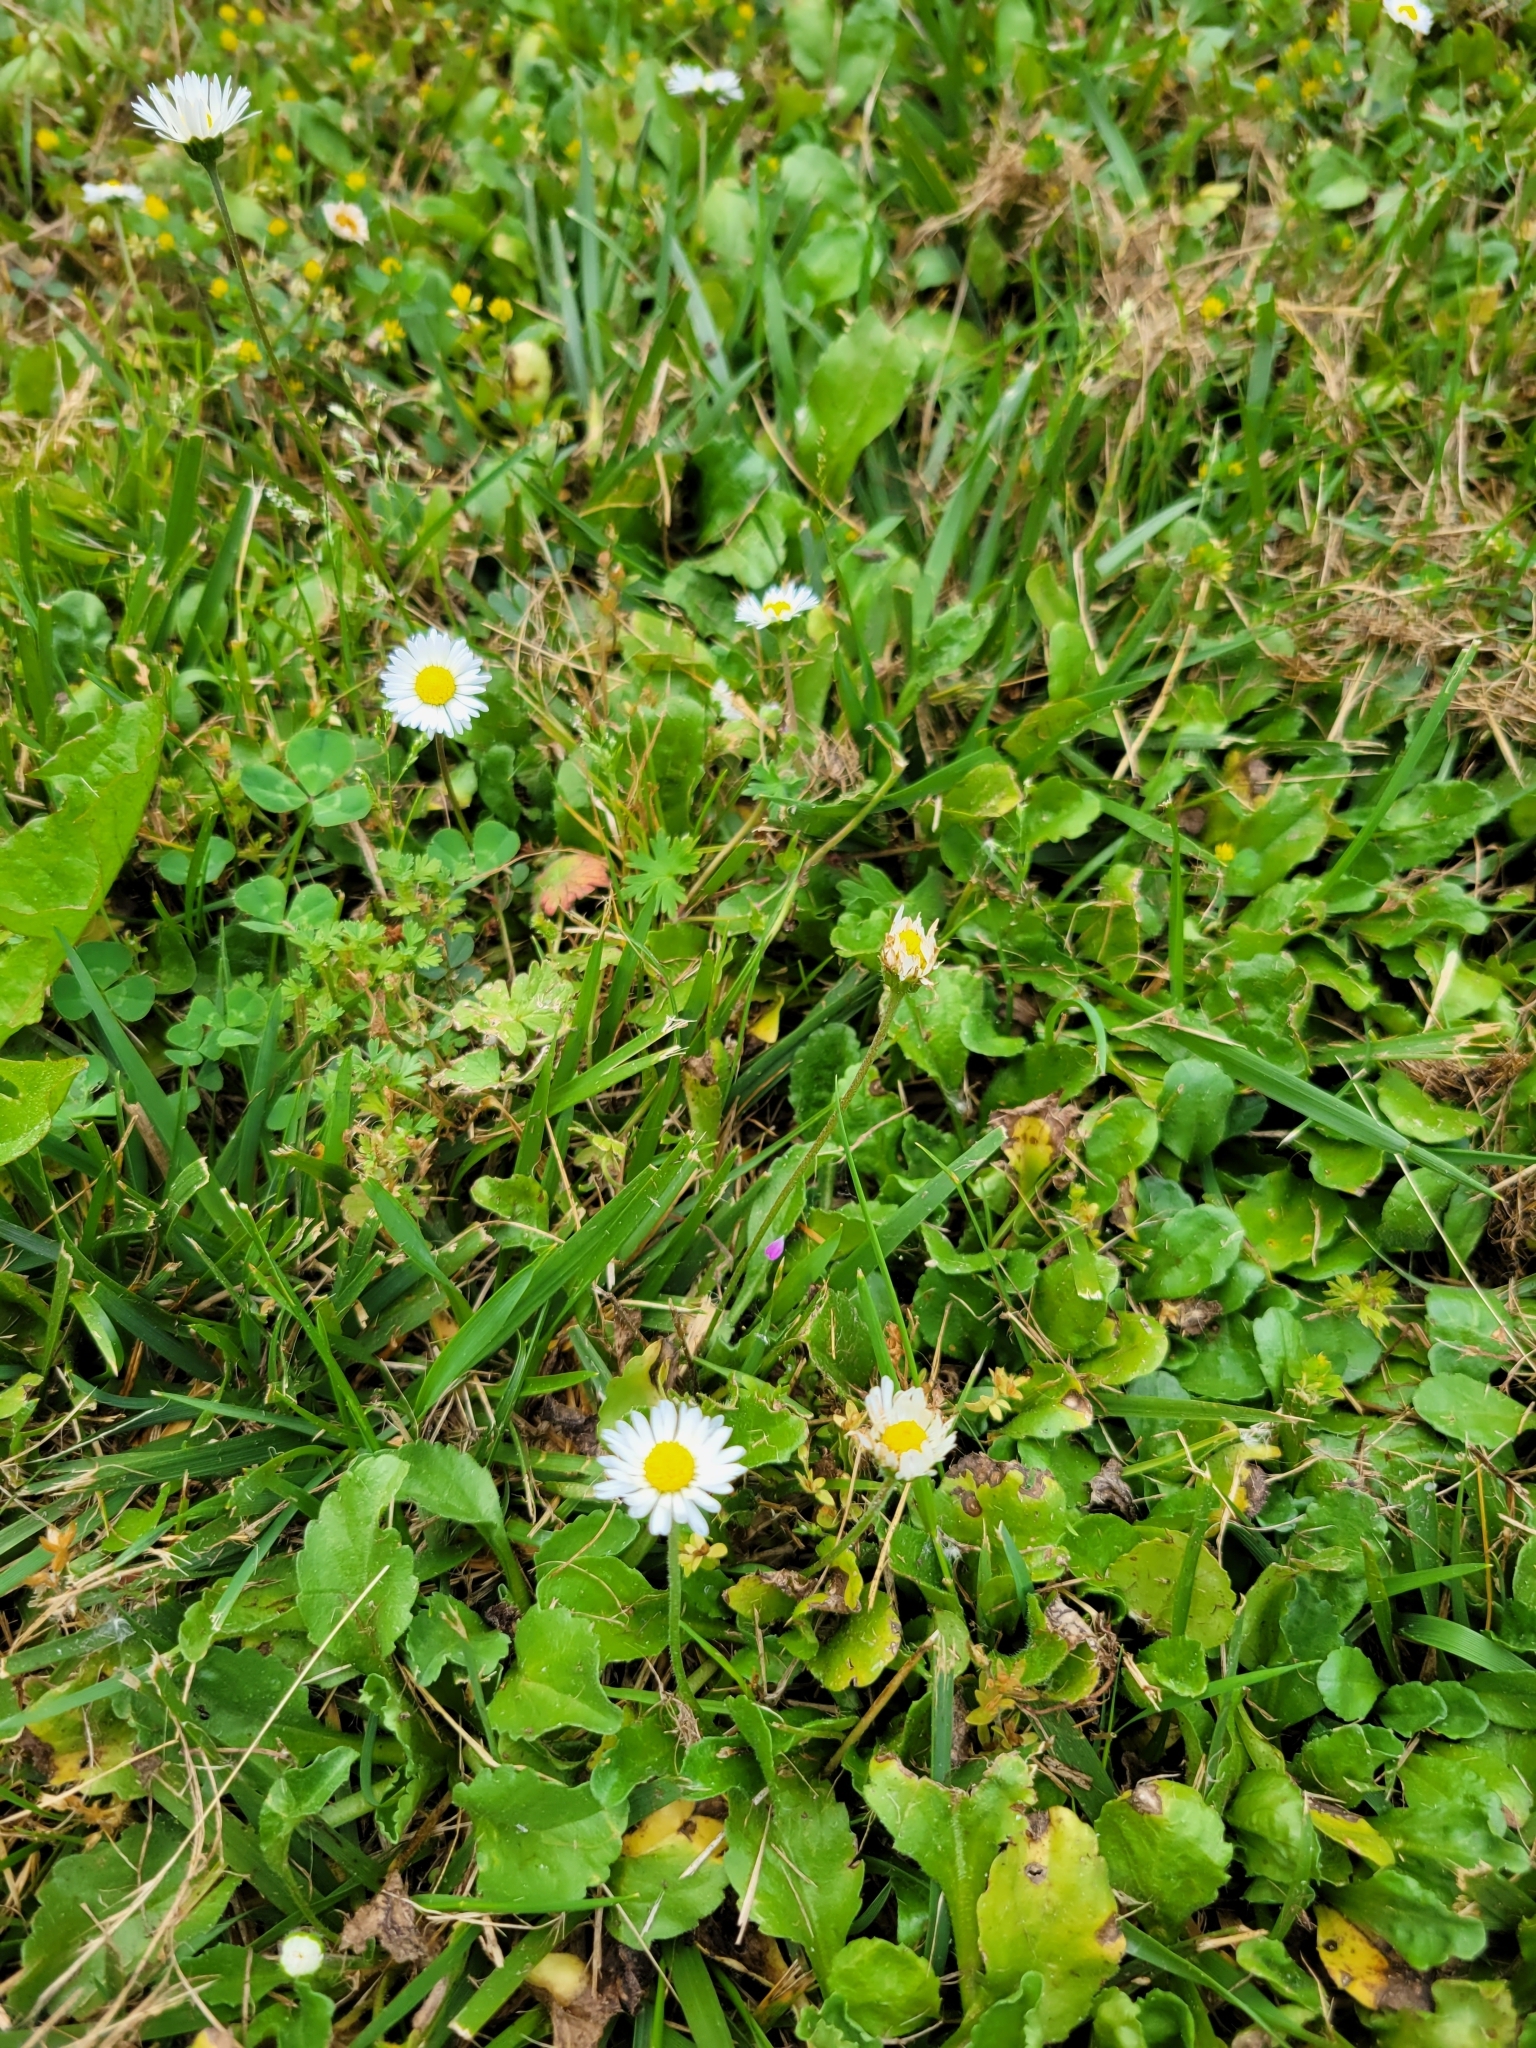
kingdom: Plantae
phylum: Tracheophyta
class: Magnoliopsida
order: Asterales
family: Asteraceae
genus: Bellis
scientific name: Bellis perennis
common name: Lawndaisy
